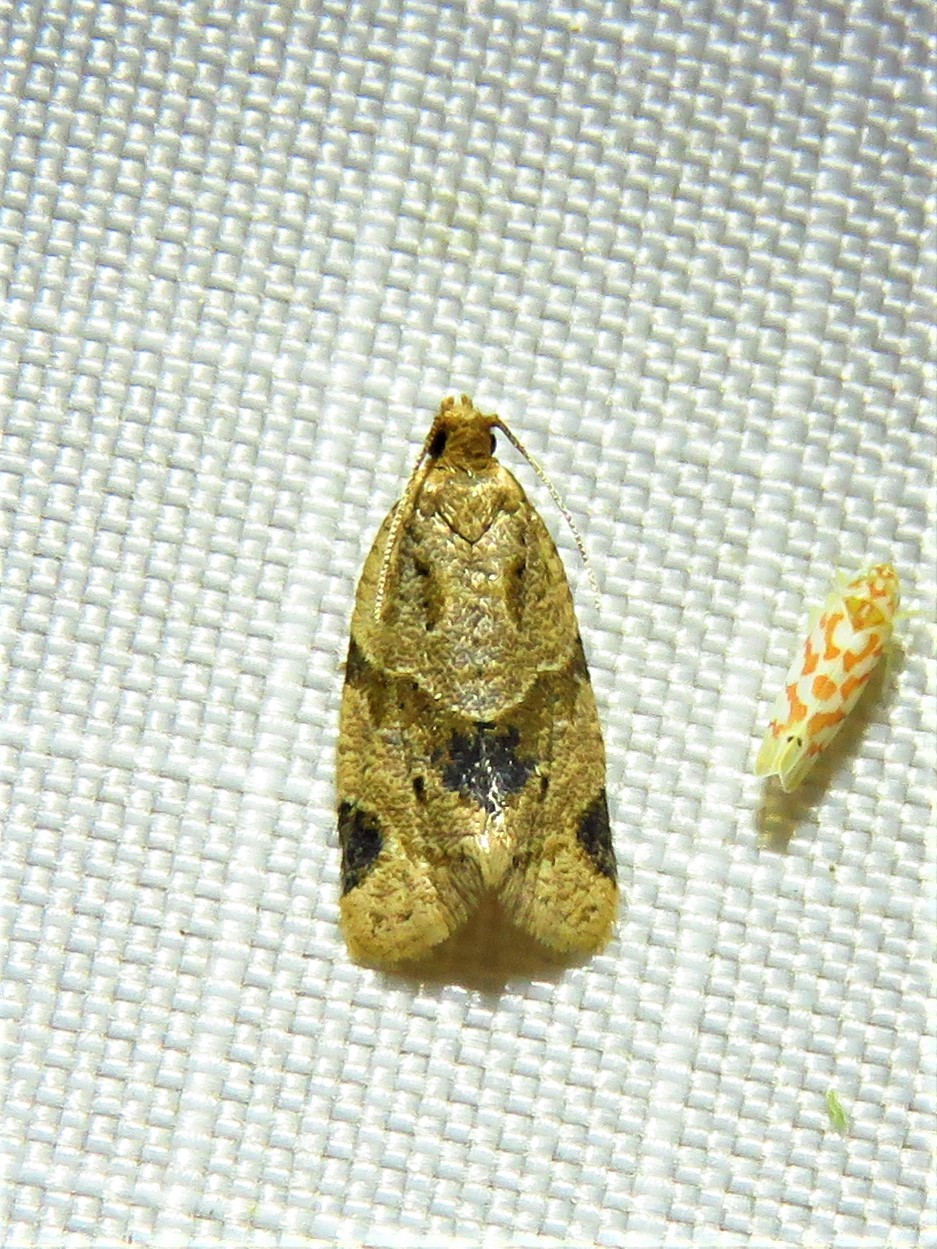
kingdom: Animalia
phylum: Arthropoda
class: Insecta
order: Lepidoptera
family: Tortricidae
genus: Clepsis
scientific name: Clepsis peritana
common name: Garden tortrix
